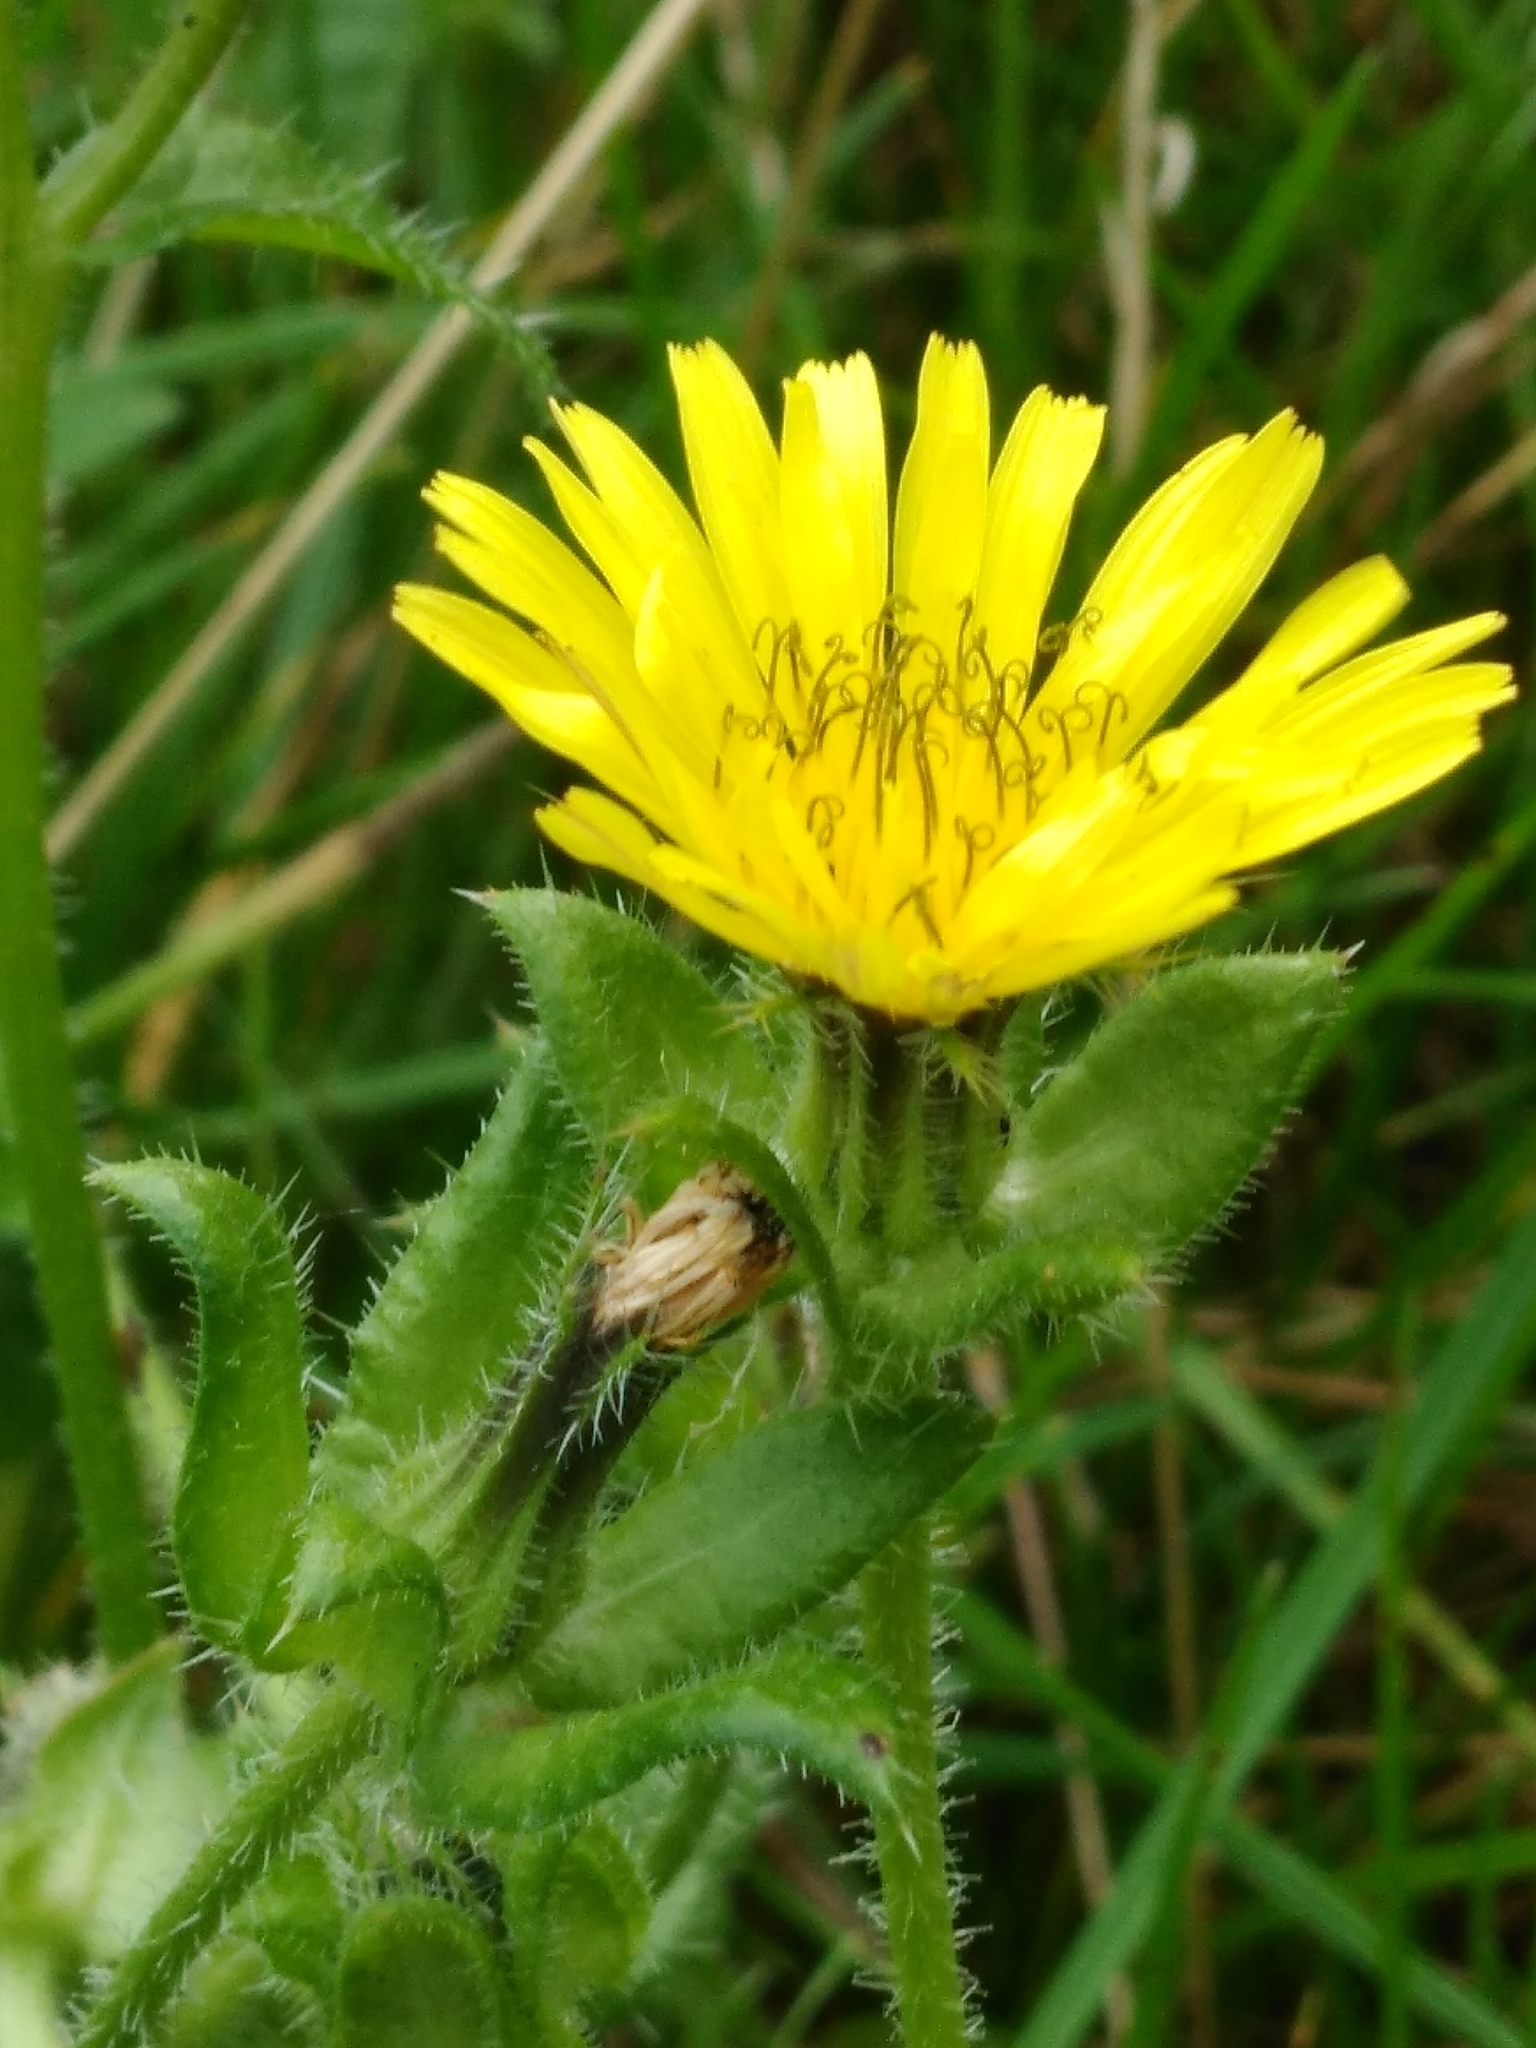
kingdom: Plantae
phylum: Tracheophyta
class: Magnoliopsida
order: Asterales
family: Asteraceae
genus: Helminthotheca
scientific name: Helminthotheca echioides
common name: Ox-tongue
